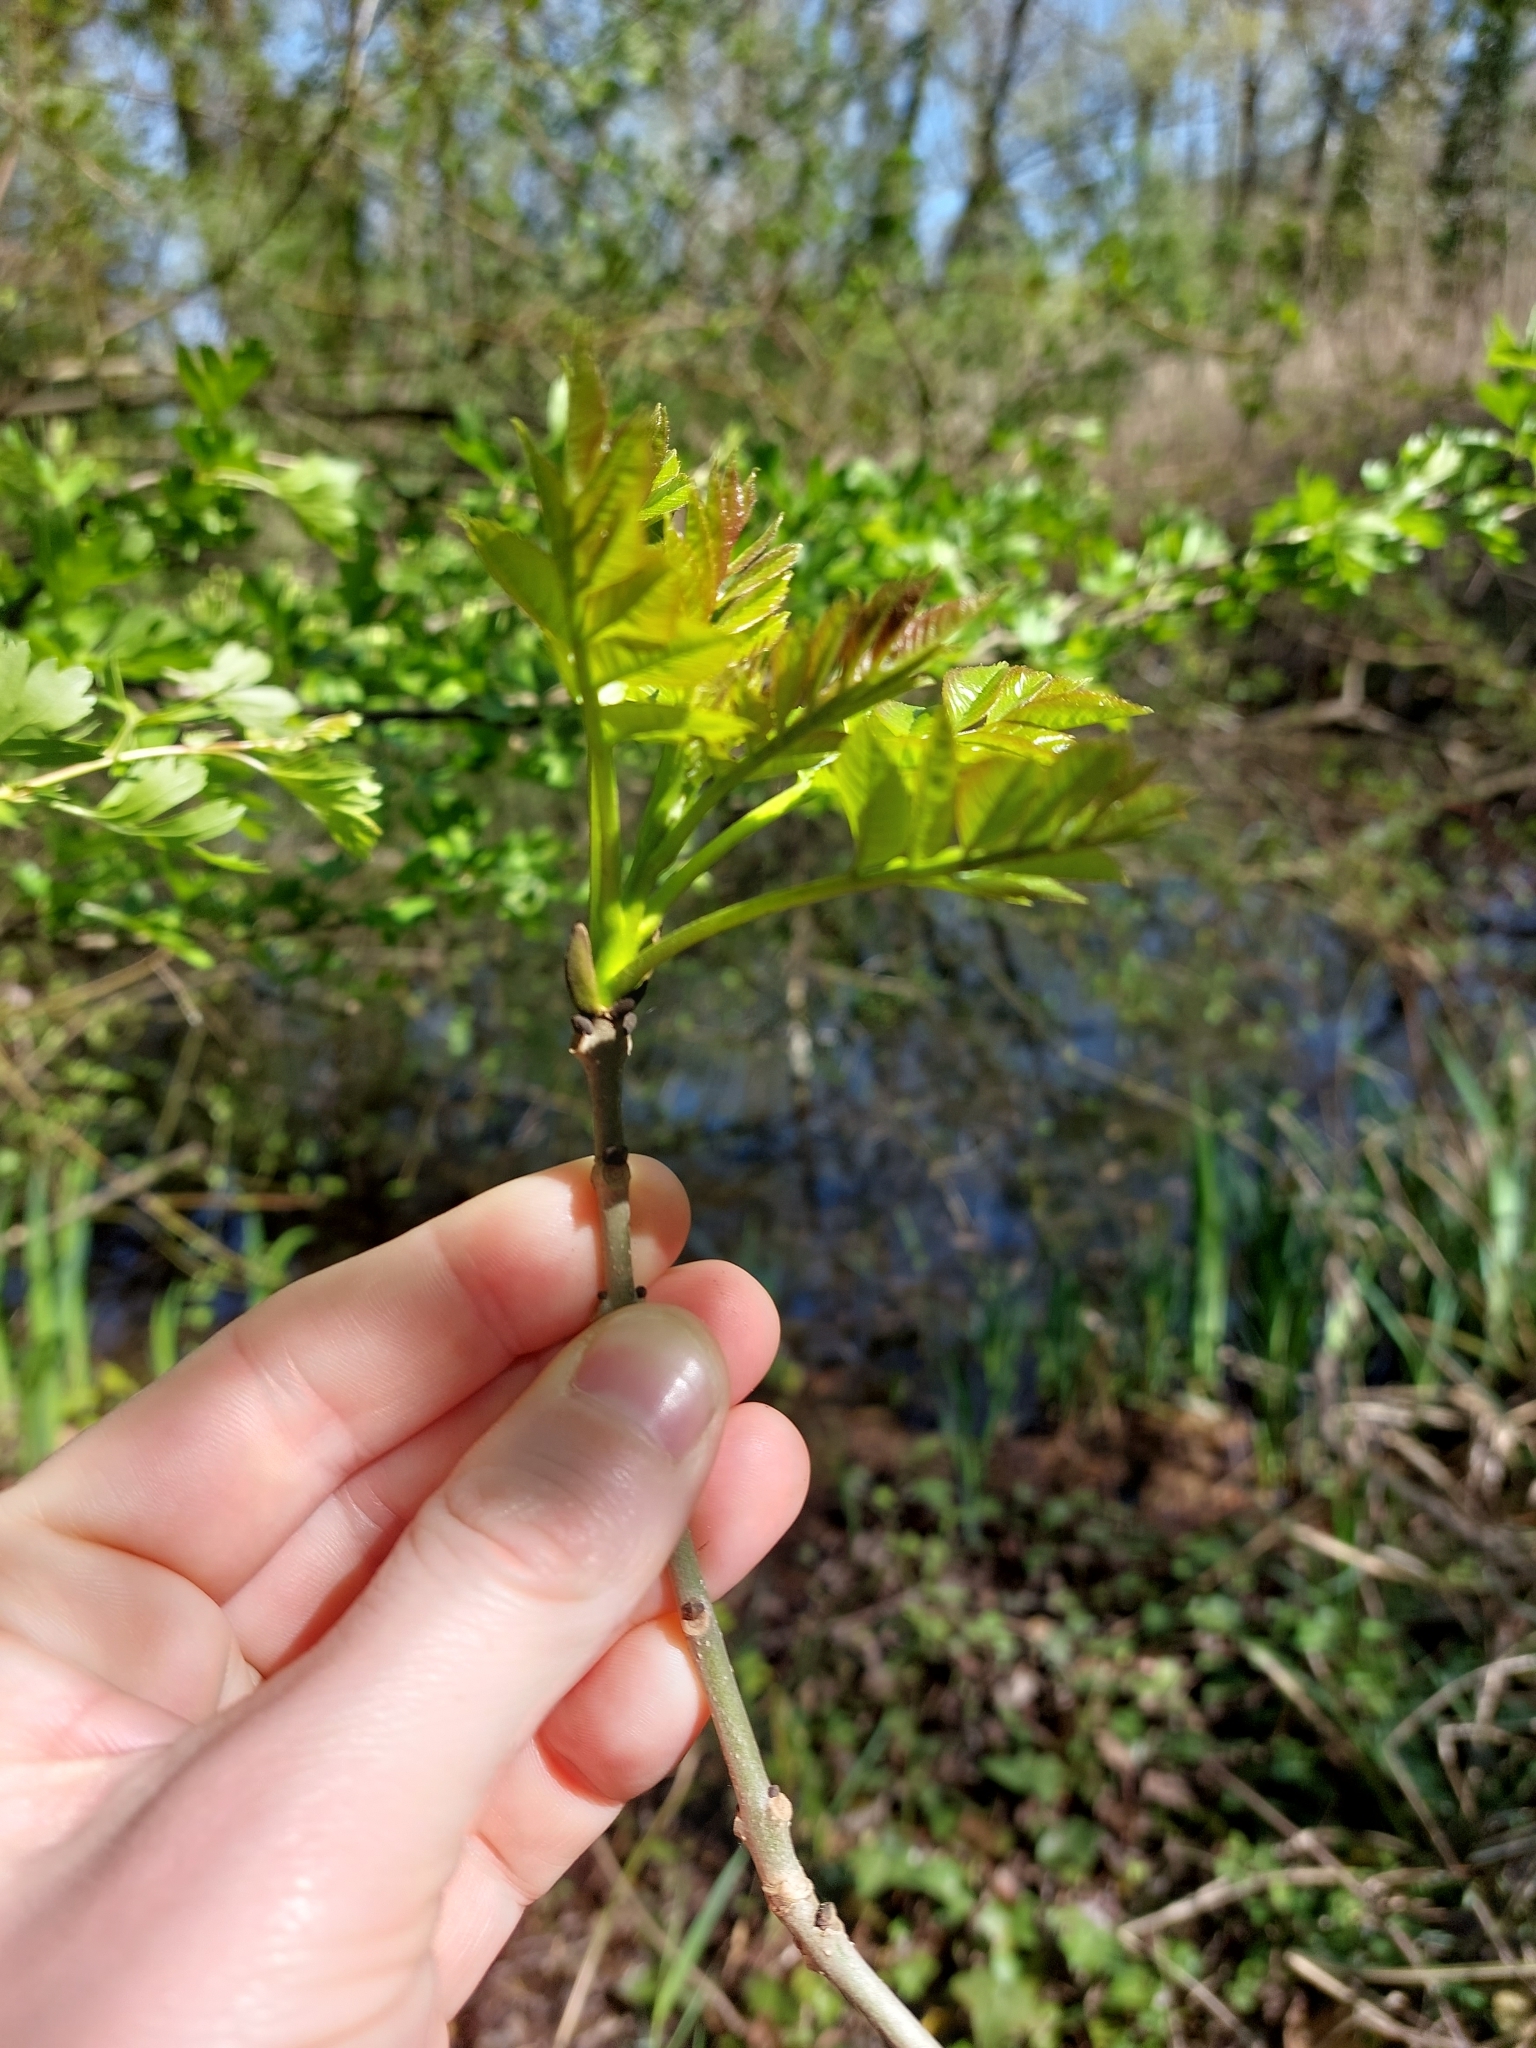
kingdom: Plantae
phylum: Tracheophyta
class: Magnoliopsida
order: Lamiales
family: Oleaceae
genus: Fraxinus
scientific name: Fraxinus excelsior
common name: European ash
